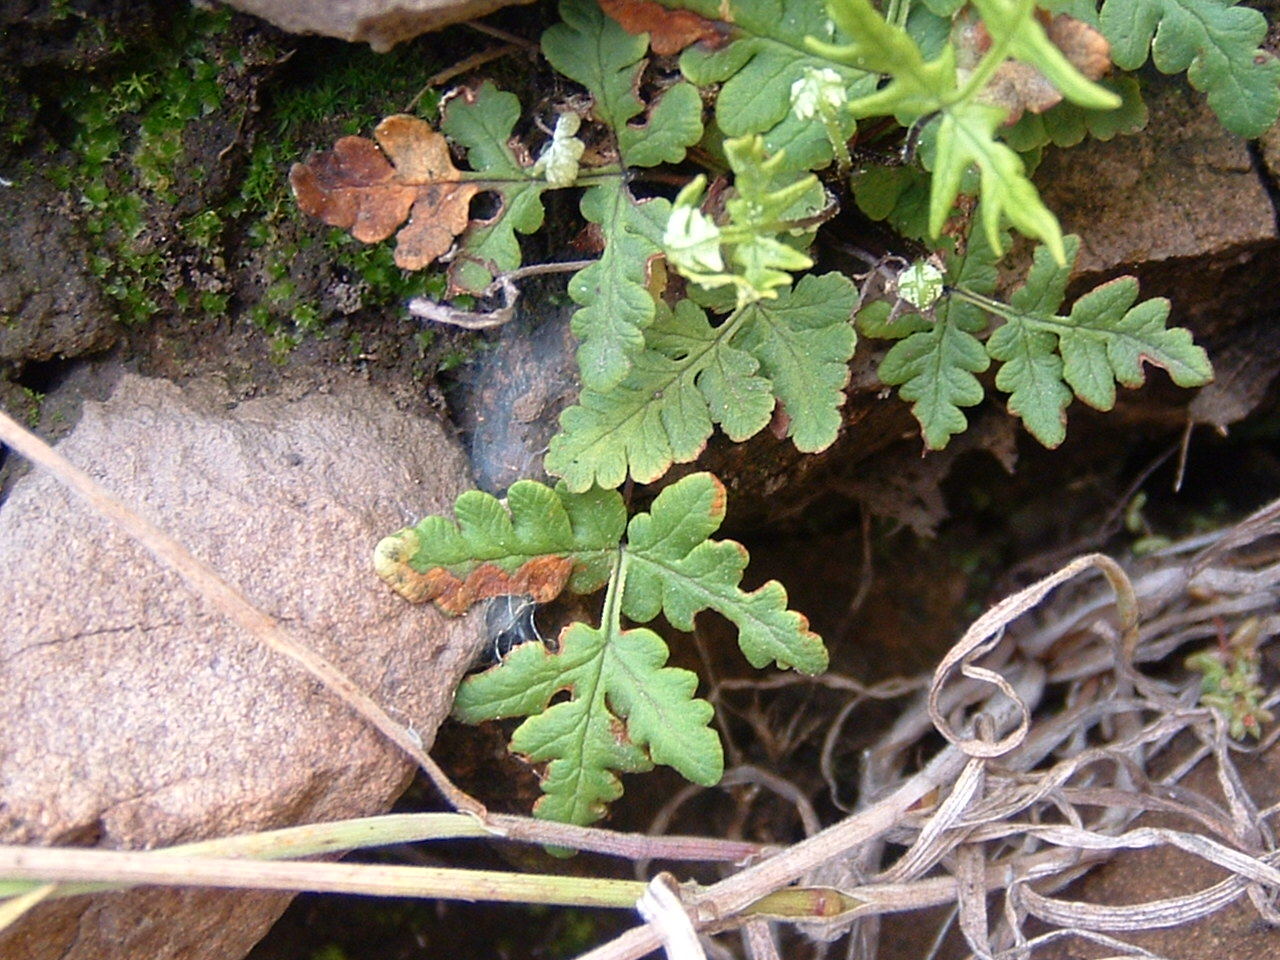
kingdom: Plantae
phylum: Tracheophyta
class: Polypodiopsida
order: Polypodiales
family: Pteridaceae
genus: Pentagramma
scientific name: Pentagramma triangularis
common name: Gold fern
